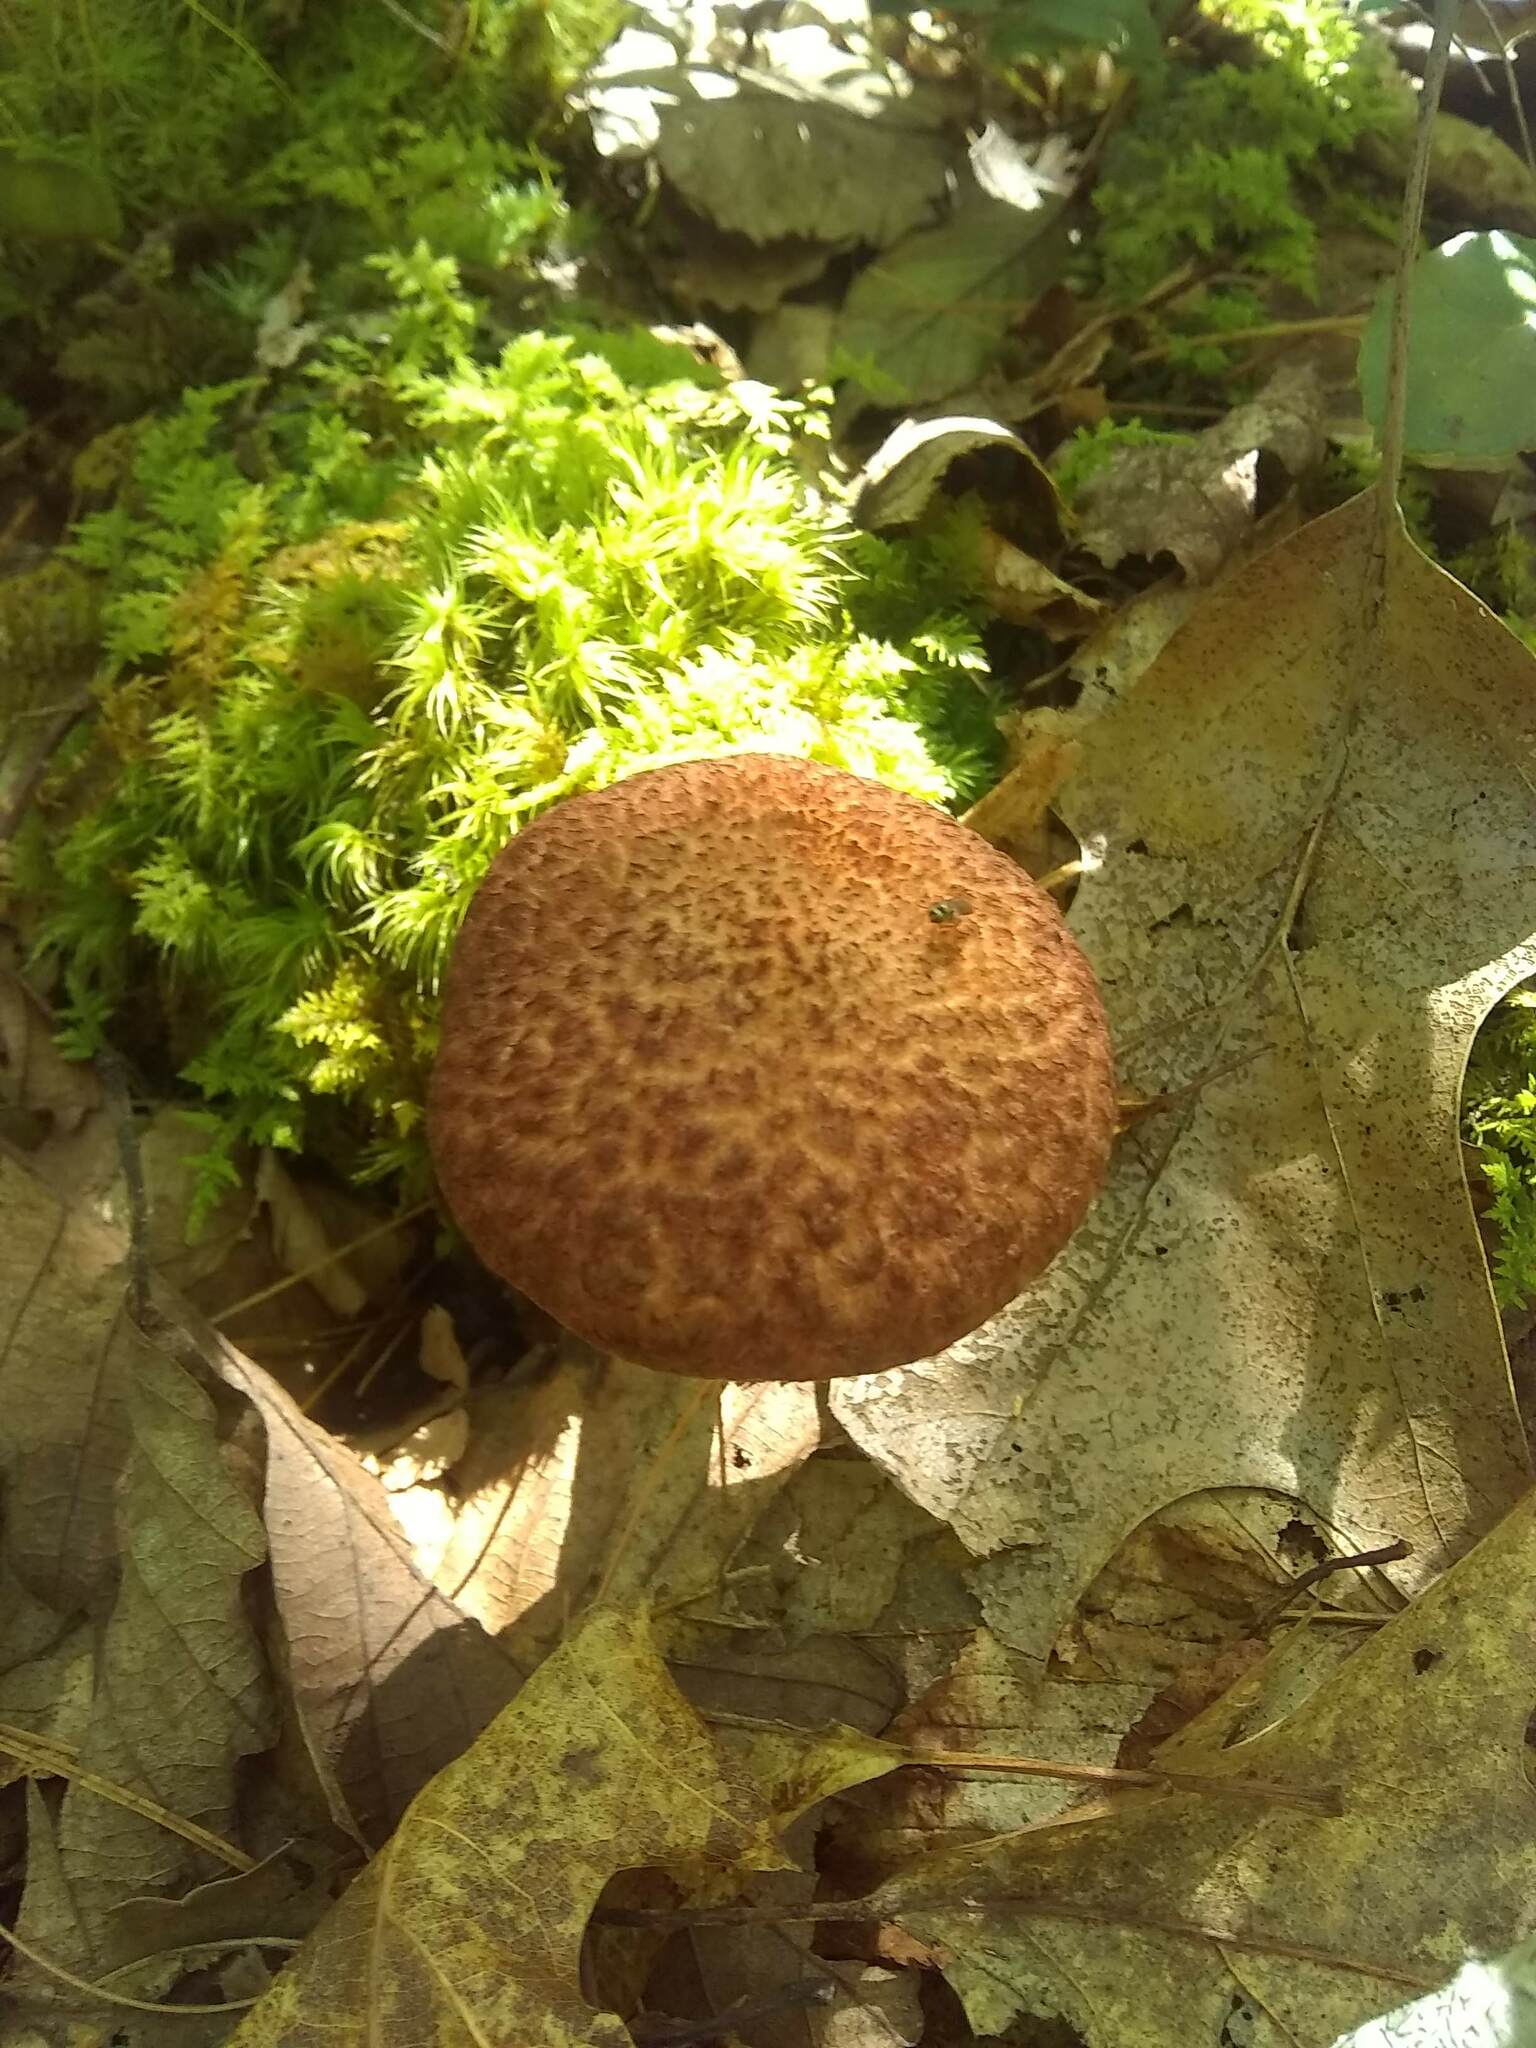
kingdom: Fungi
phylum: Basidiomycota
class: Agaricomycetes
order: Boletales
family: Suillaceae
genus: Suillus
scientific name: Suillus spraguei
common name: Painted suillus
